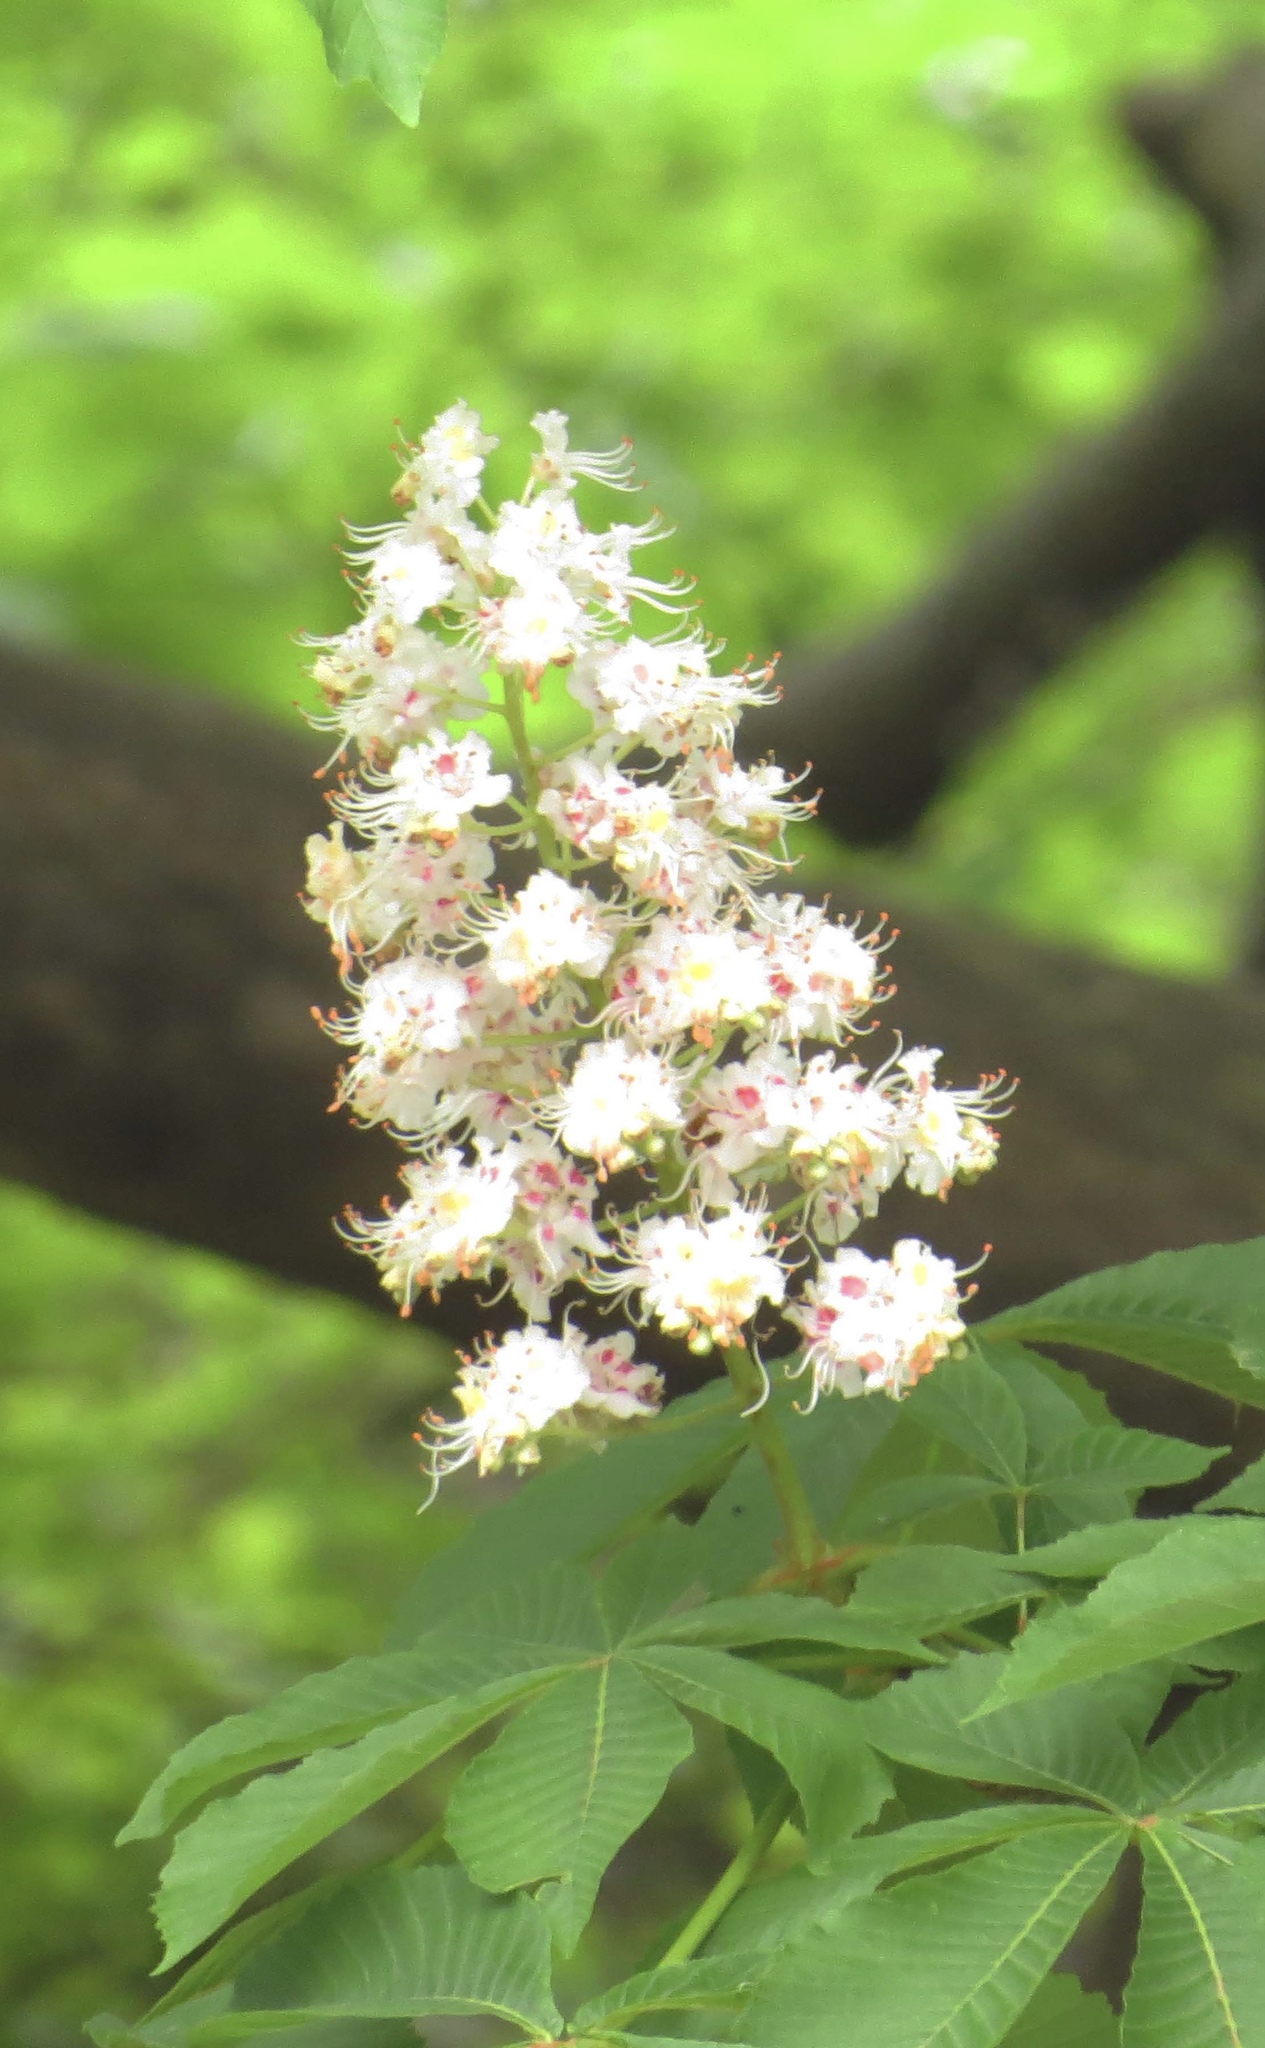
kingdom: Plantae
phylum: Tracheophyta
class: Magnoliopsida
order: Sapindales
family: Sapindaceae
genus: Aesculus
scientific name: Aesculus hippocastanum
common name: Horse-chestnut
